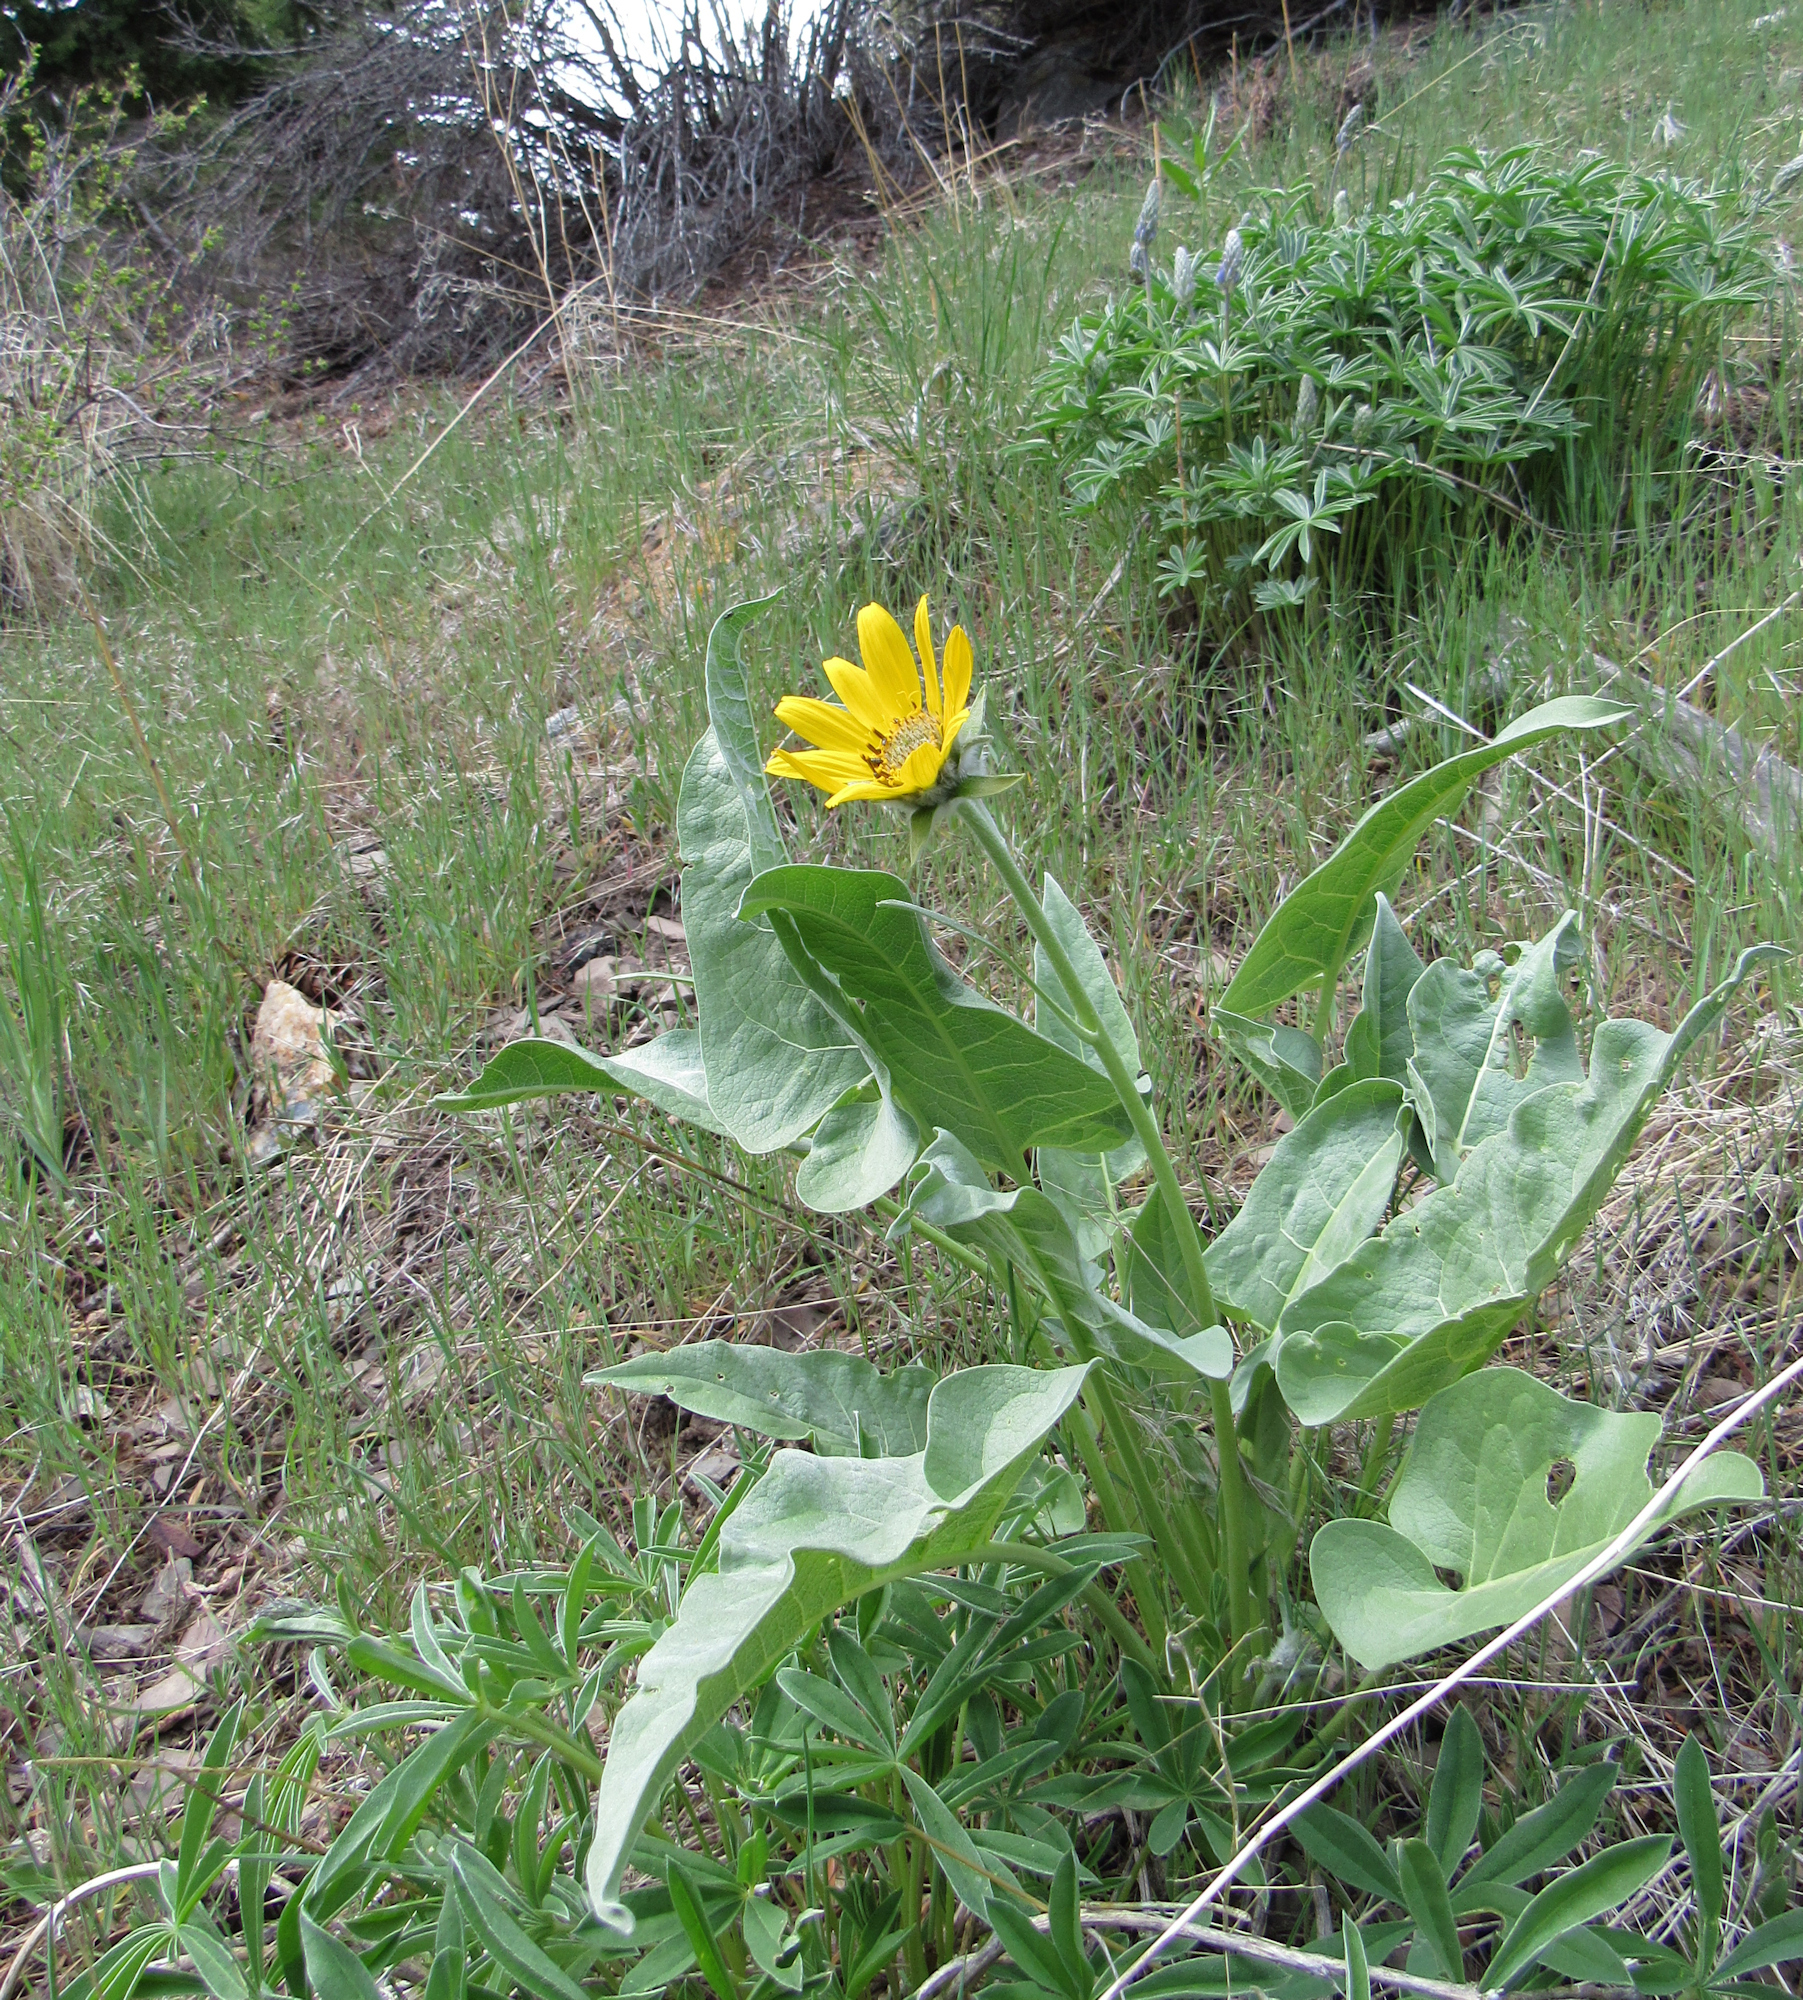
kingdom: Plantae
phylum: Tracheophyta
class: Magnoliopsida
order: Asterales
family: Asteraceae
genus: Wyethia
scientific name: Wyethia sagittata
